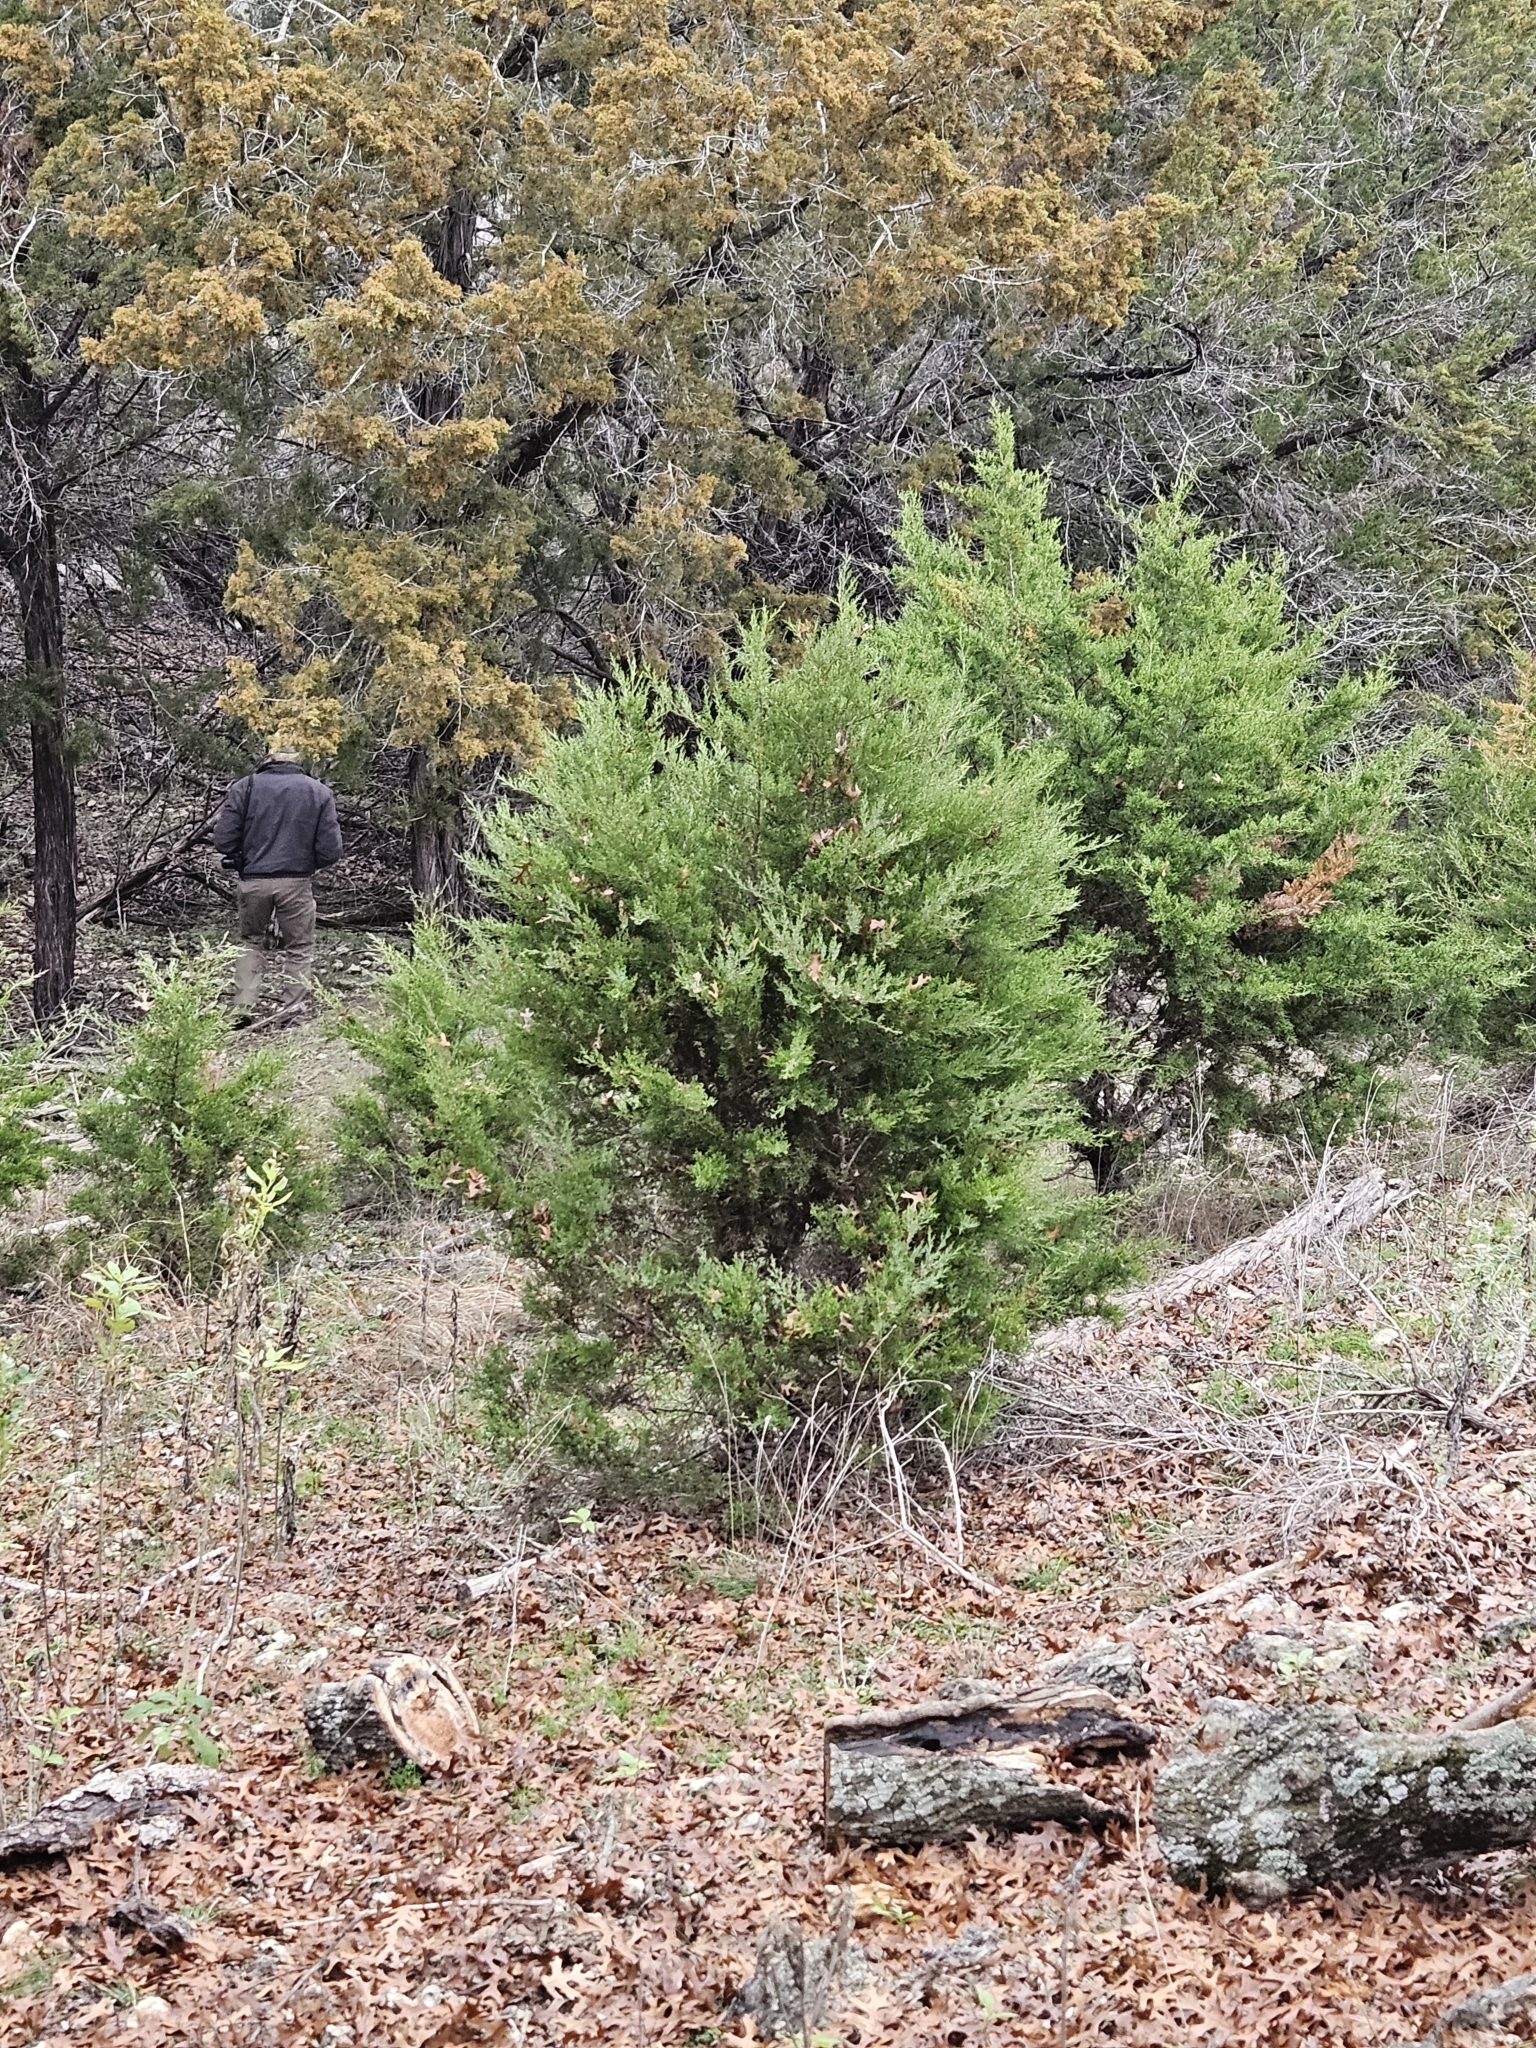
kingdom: Plantae
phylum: Tracheophyta
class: Pinopsida
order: Pinales
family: Cupressaceae
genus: Juniperus
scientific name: Juniperus ashei
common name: Mexican juniper
